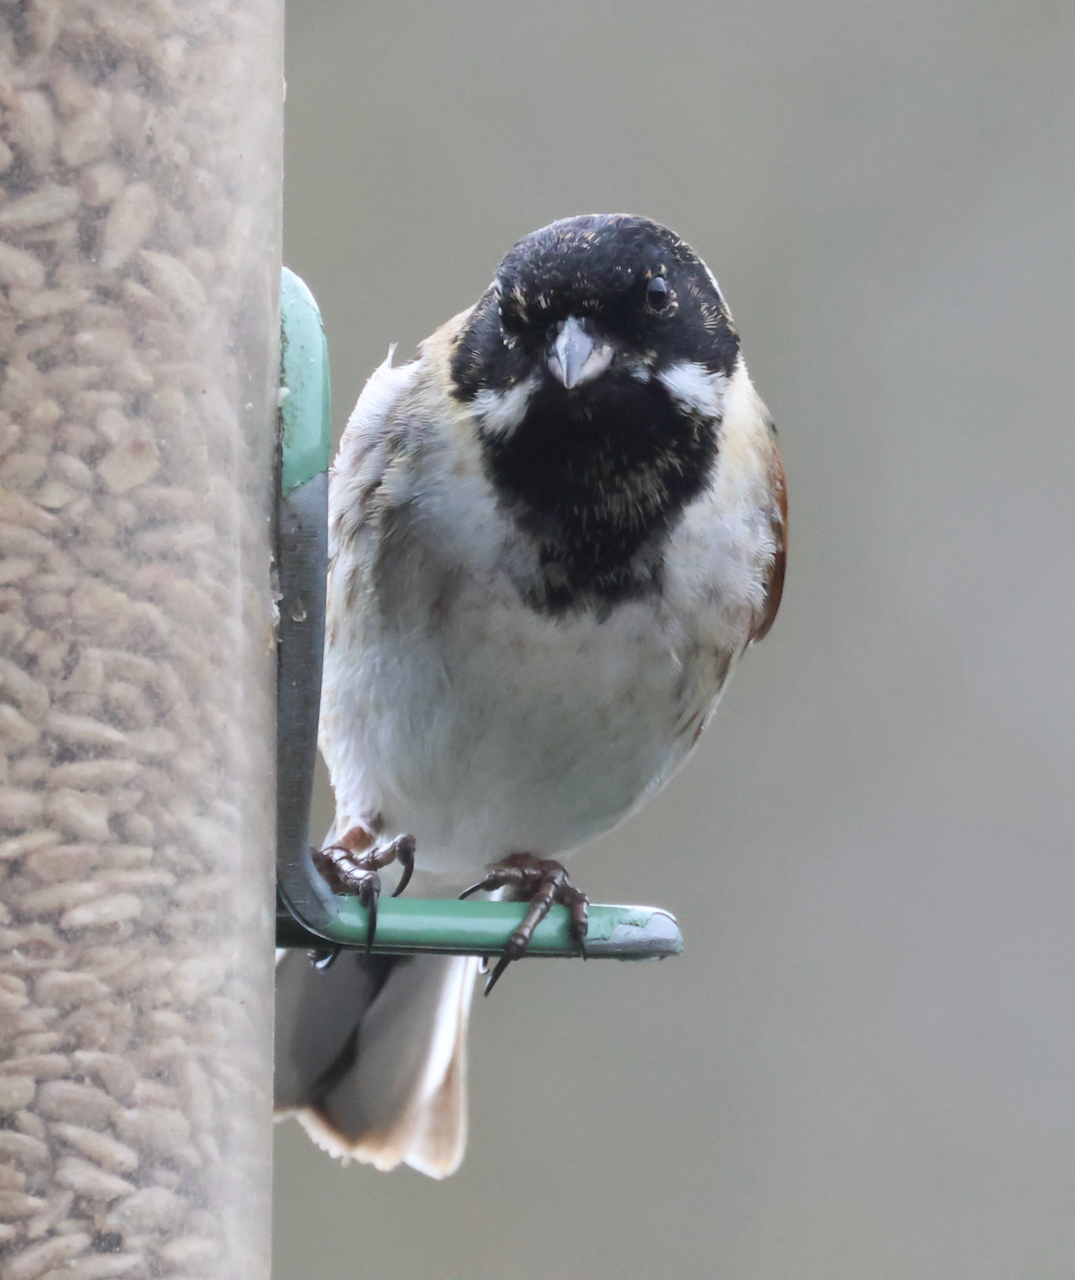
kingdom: Animalia
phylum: Chordata
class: Aves
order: Passeriformes
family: Emberizidae
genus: Emberiza
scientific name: Emberiza schoeniclus
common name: Reed bunting
